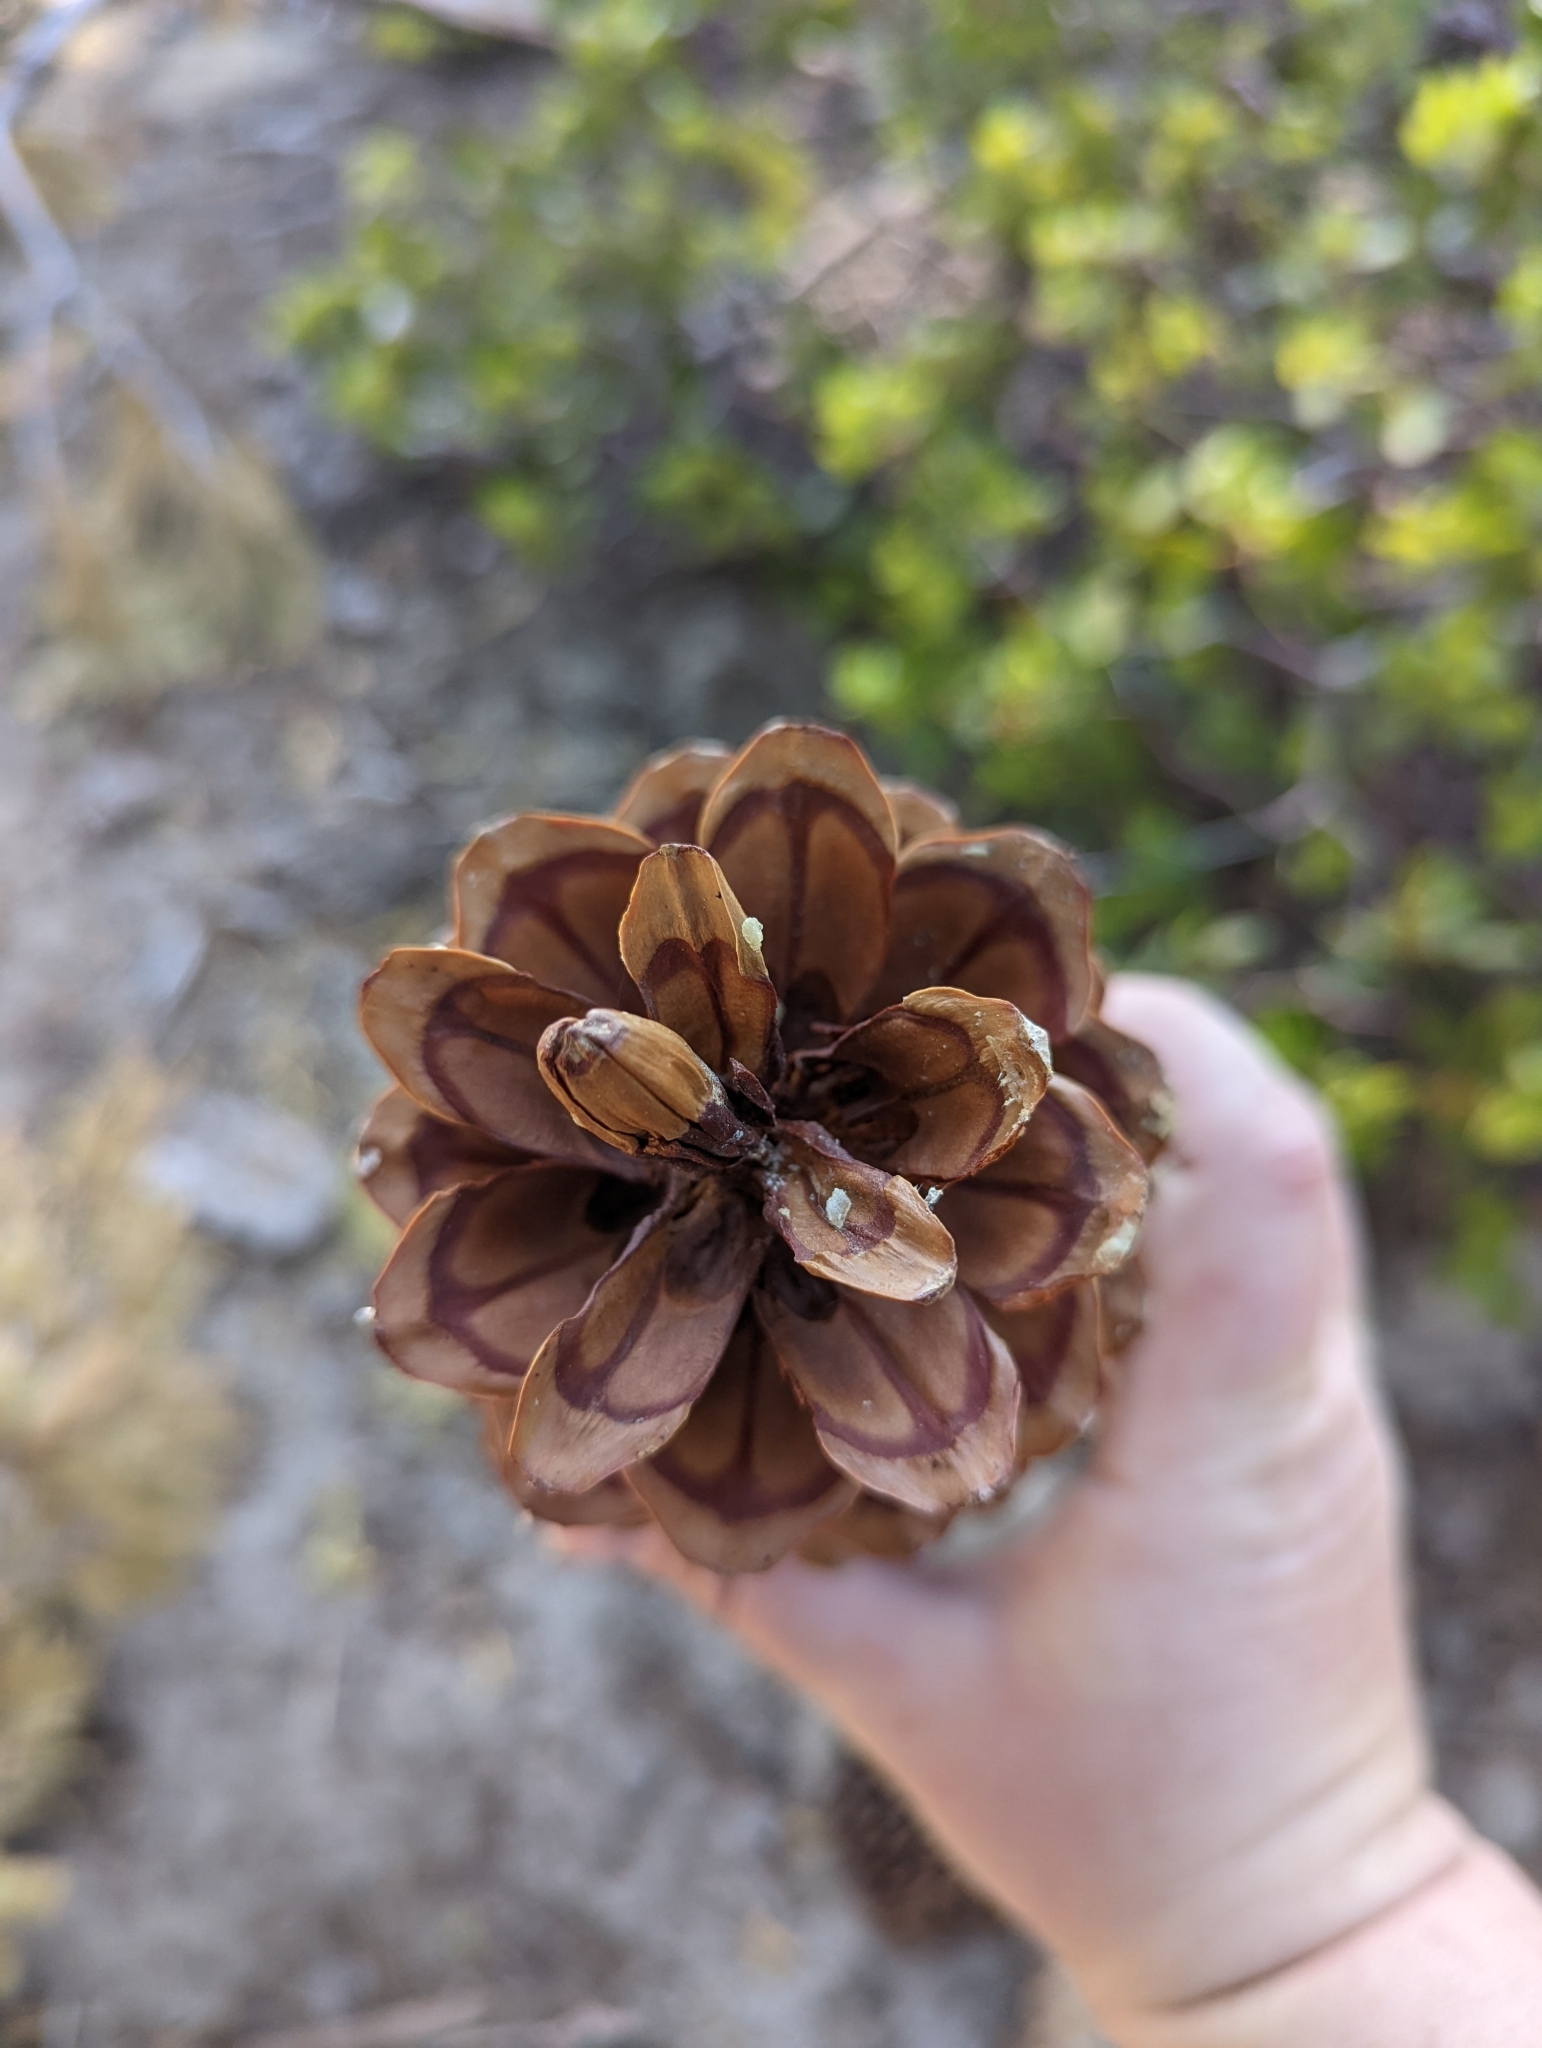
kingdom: Plantae
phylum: Tracheophyta
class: Pinopsida
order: Pinales
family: Pinaceae
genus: Pinus
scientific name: Pinus lambertiana
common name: Sugar pine
